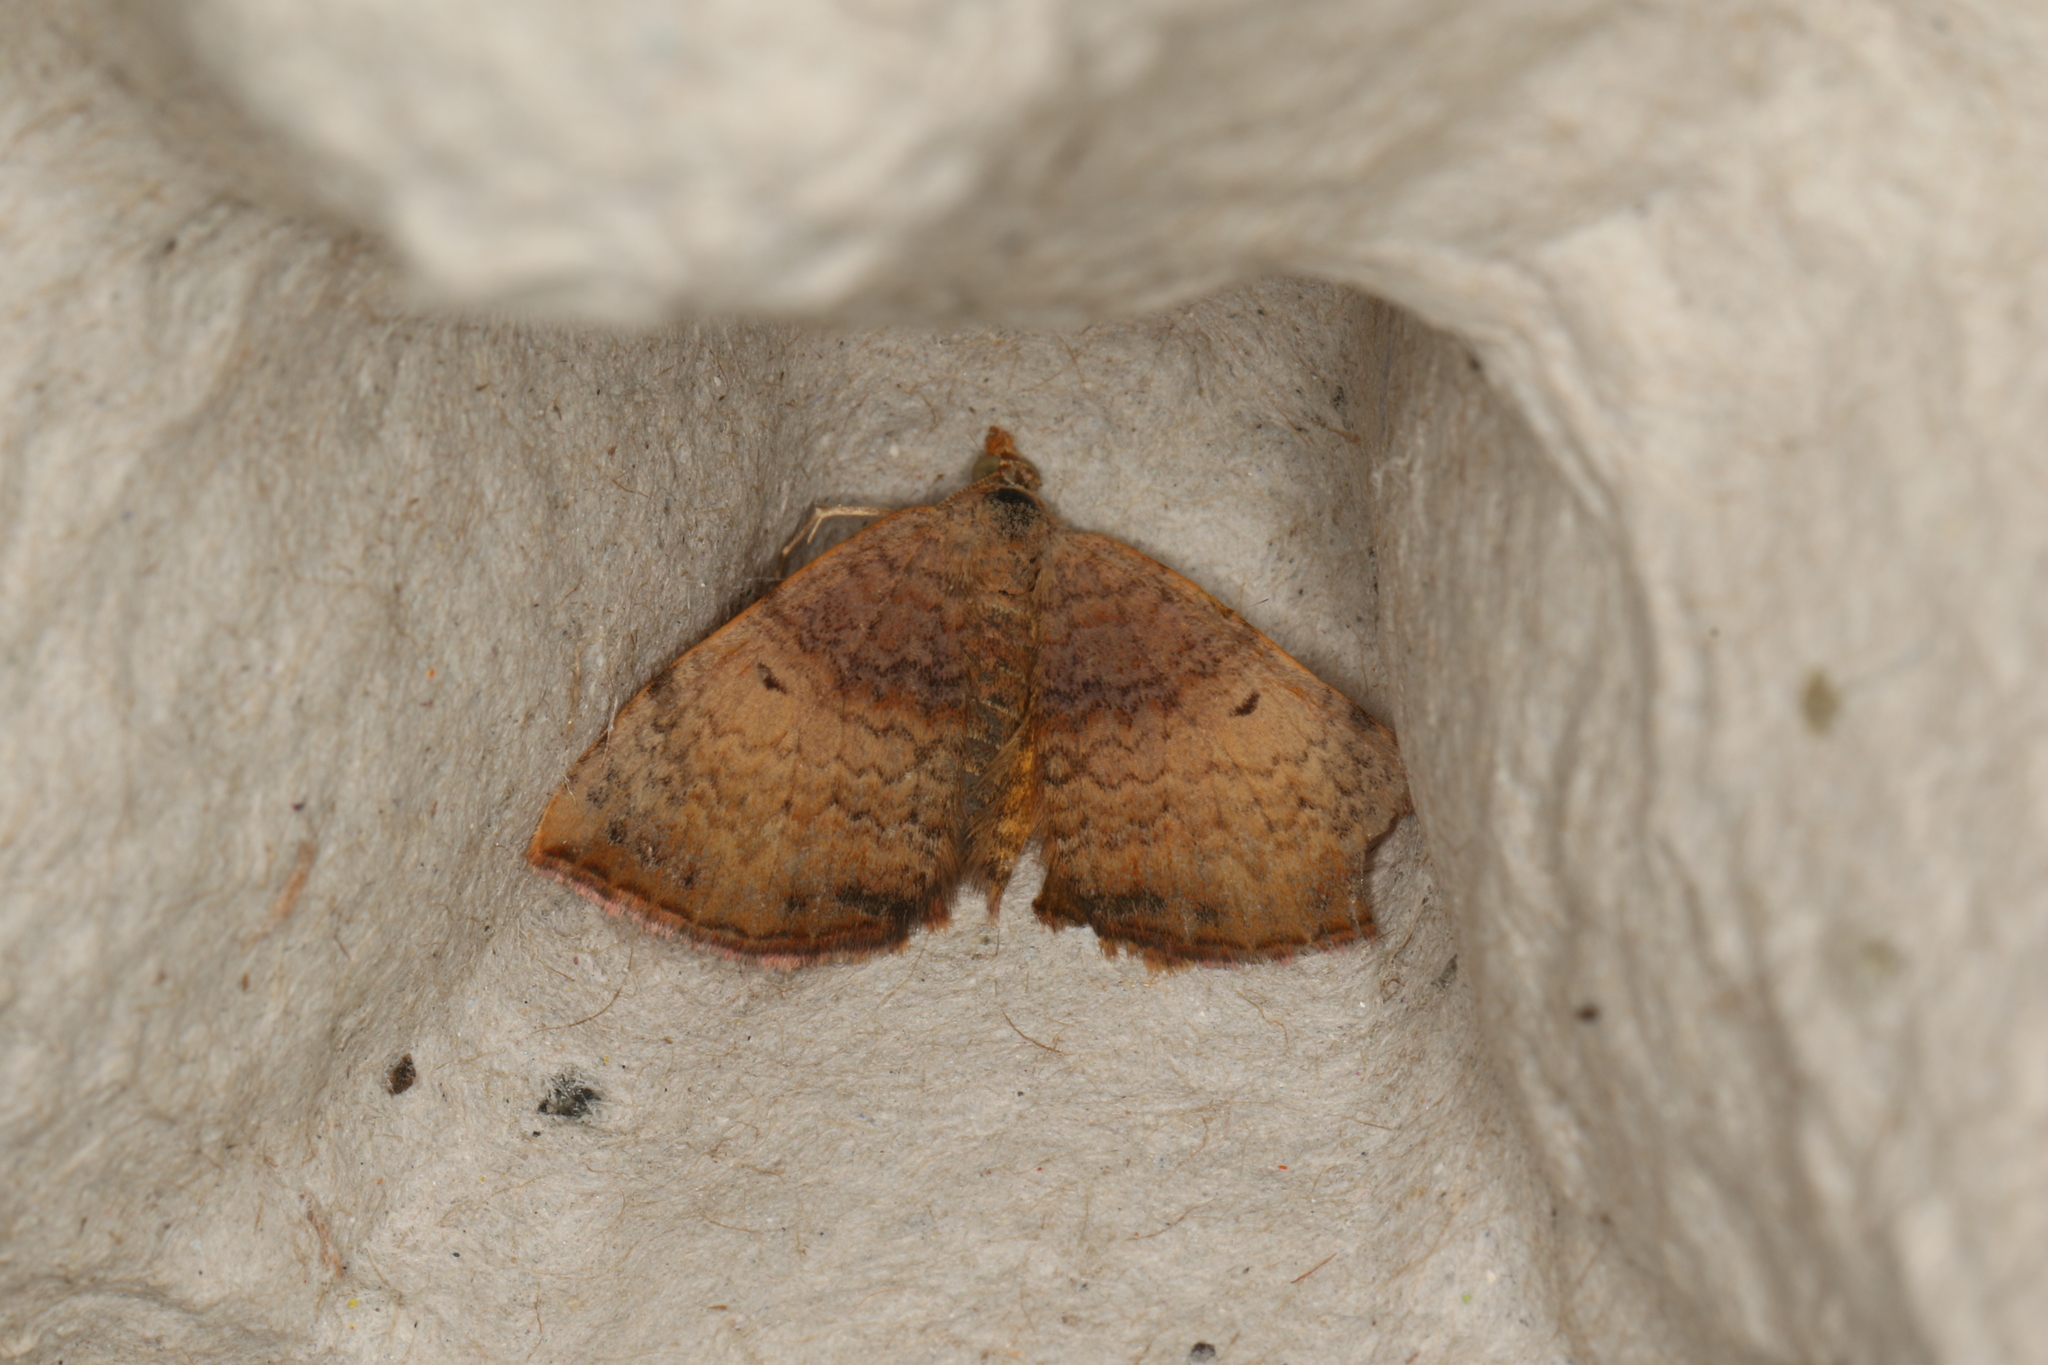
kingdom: Animalia
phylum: Arthropoda
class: Insecta
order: Lepidoptera
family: Geometridae
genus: Chrysolarentia
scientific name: Chrysolarentia mecynata
